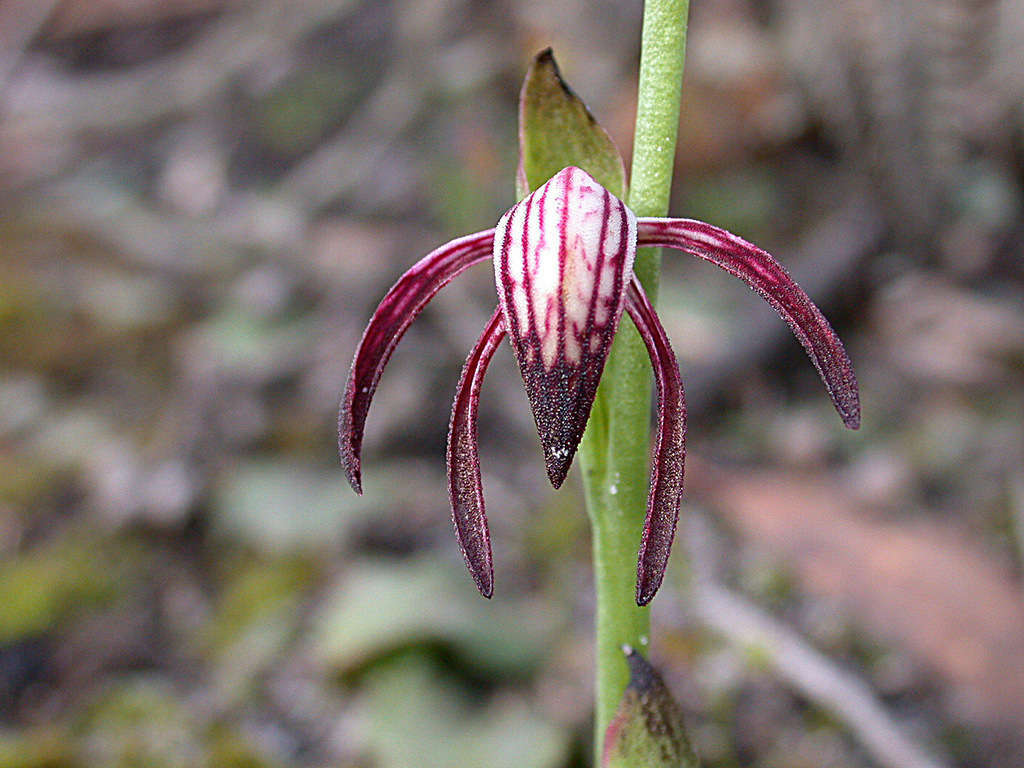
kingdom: Plantae
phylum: Tracheophyta
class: Liliopsida
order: Asparagales
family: Orchidaceae
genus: Pyrorchis
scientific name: Pyrorchis nigricans
